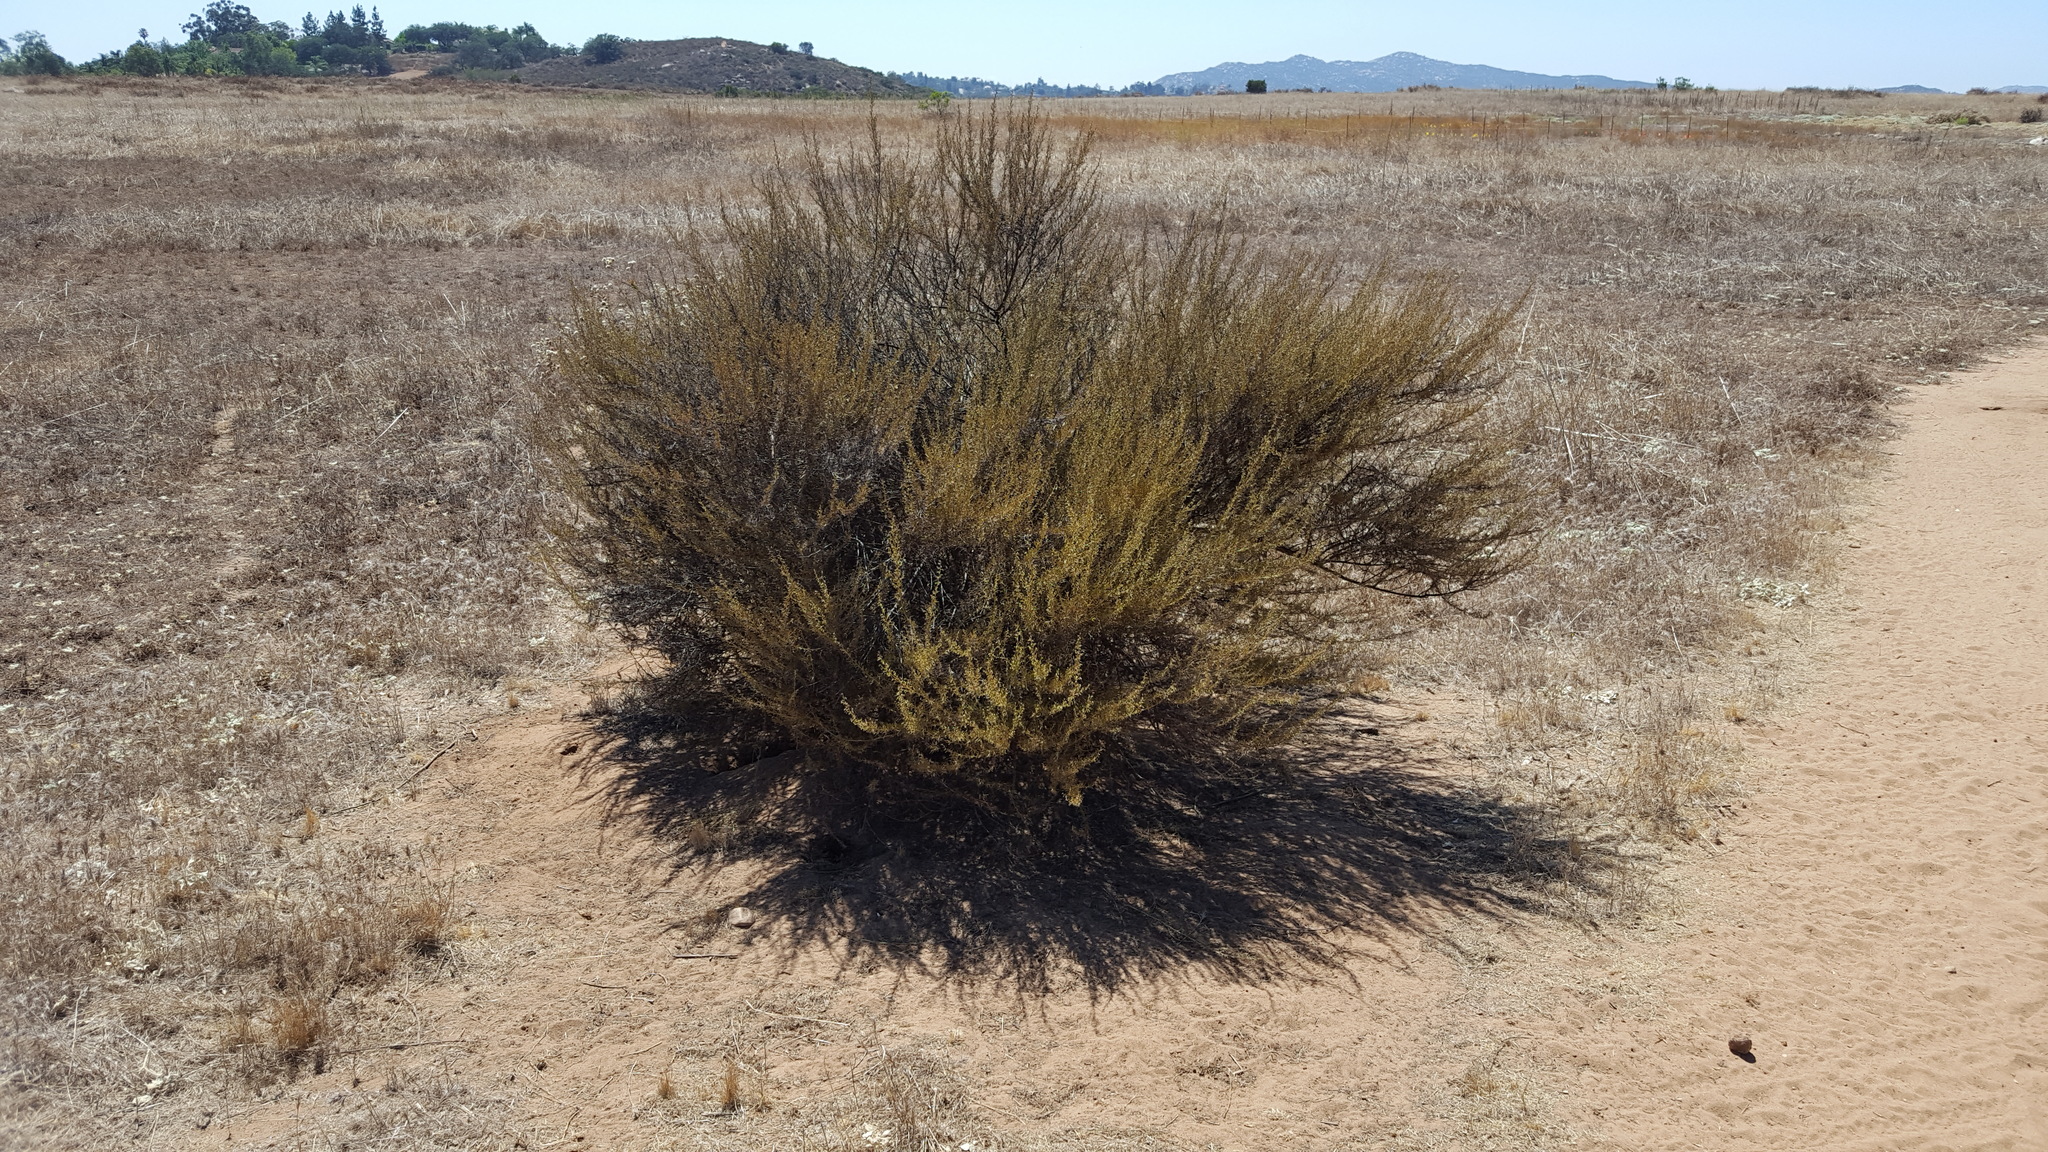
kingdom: Plantae
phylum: Tracheophyta
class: Magnoliopsida
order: Asterales
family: Asteraceae
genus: Artemisia
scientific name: Artemisia californica
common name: California sagebrush
